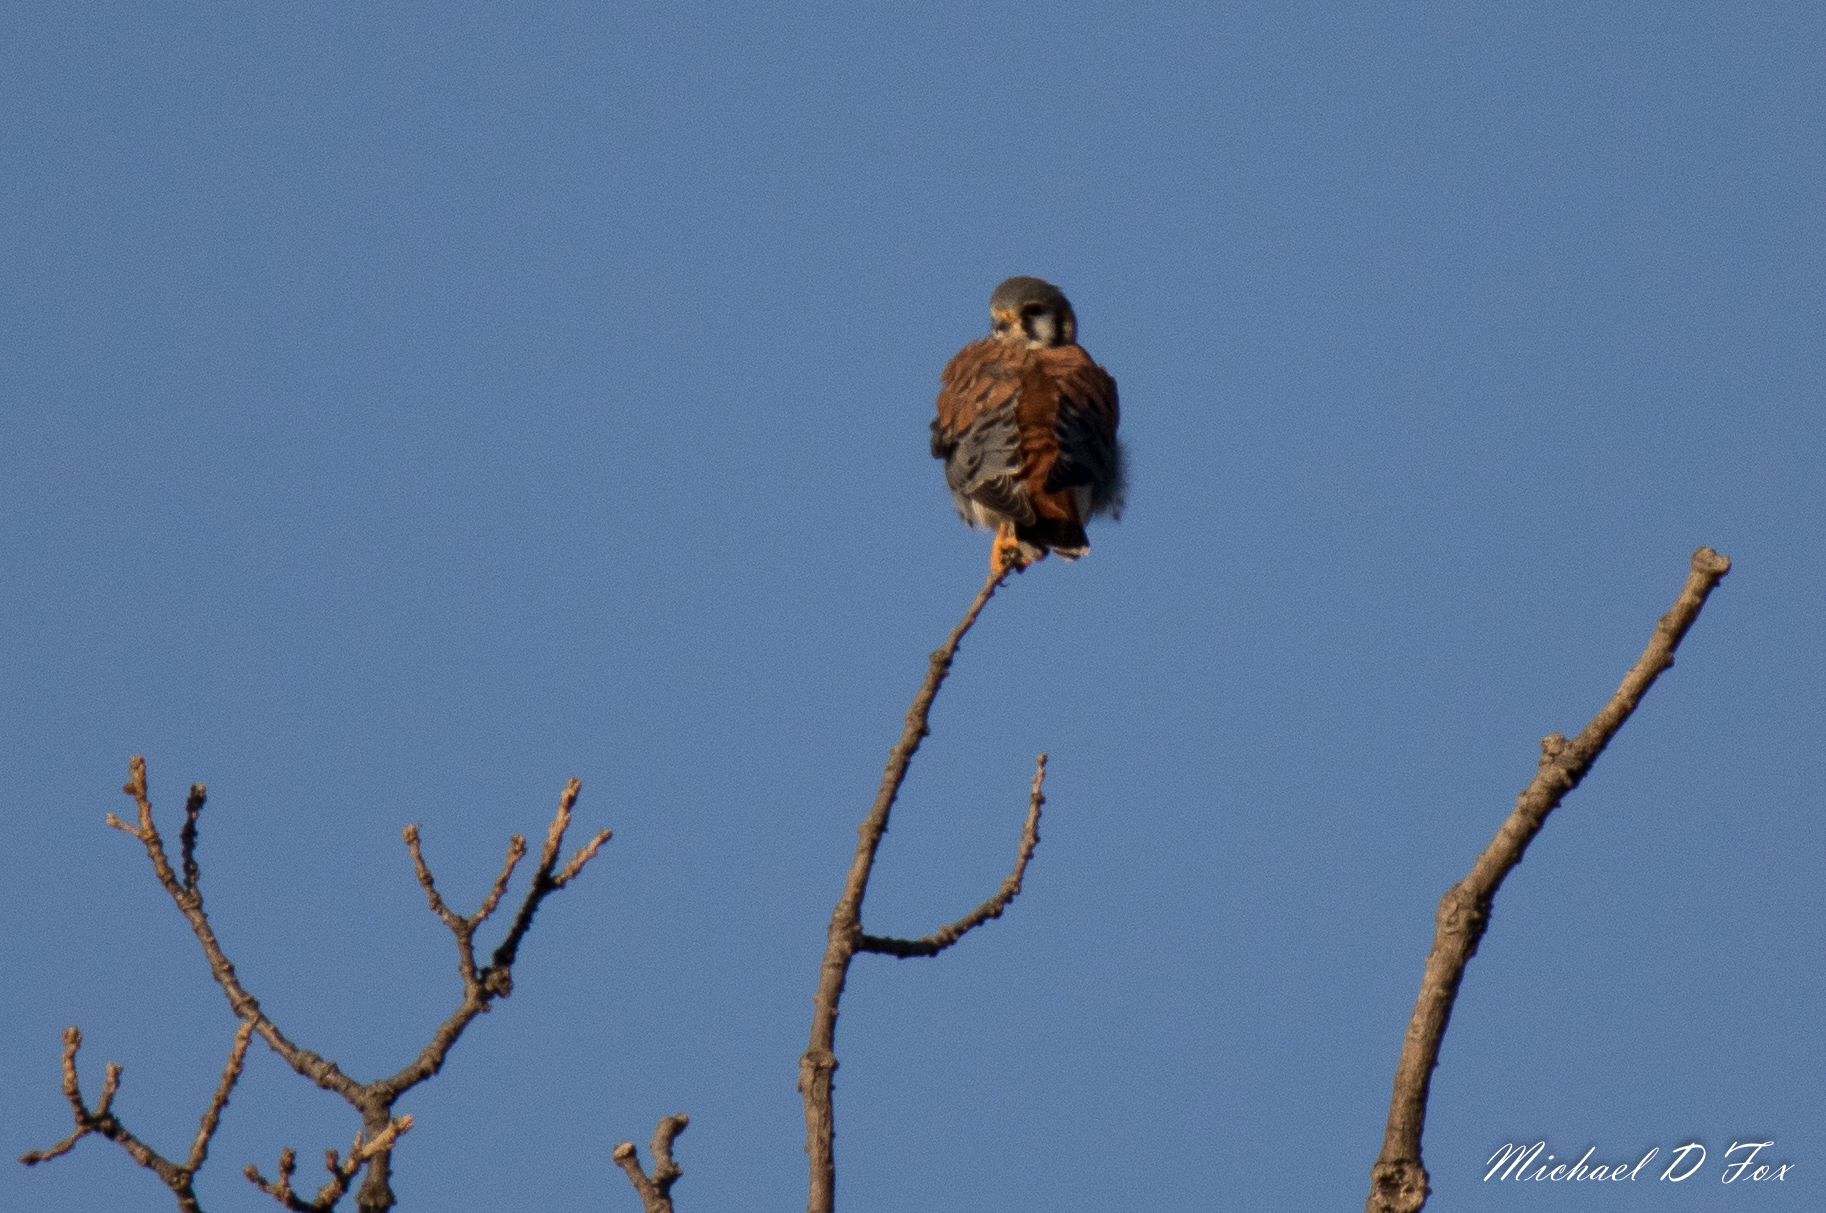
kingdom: Animalia
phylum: Chordata
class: Aves
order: Falconiformes
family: Falconidae
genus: Falco
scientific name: Falco sparverius
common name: American kestrel
